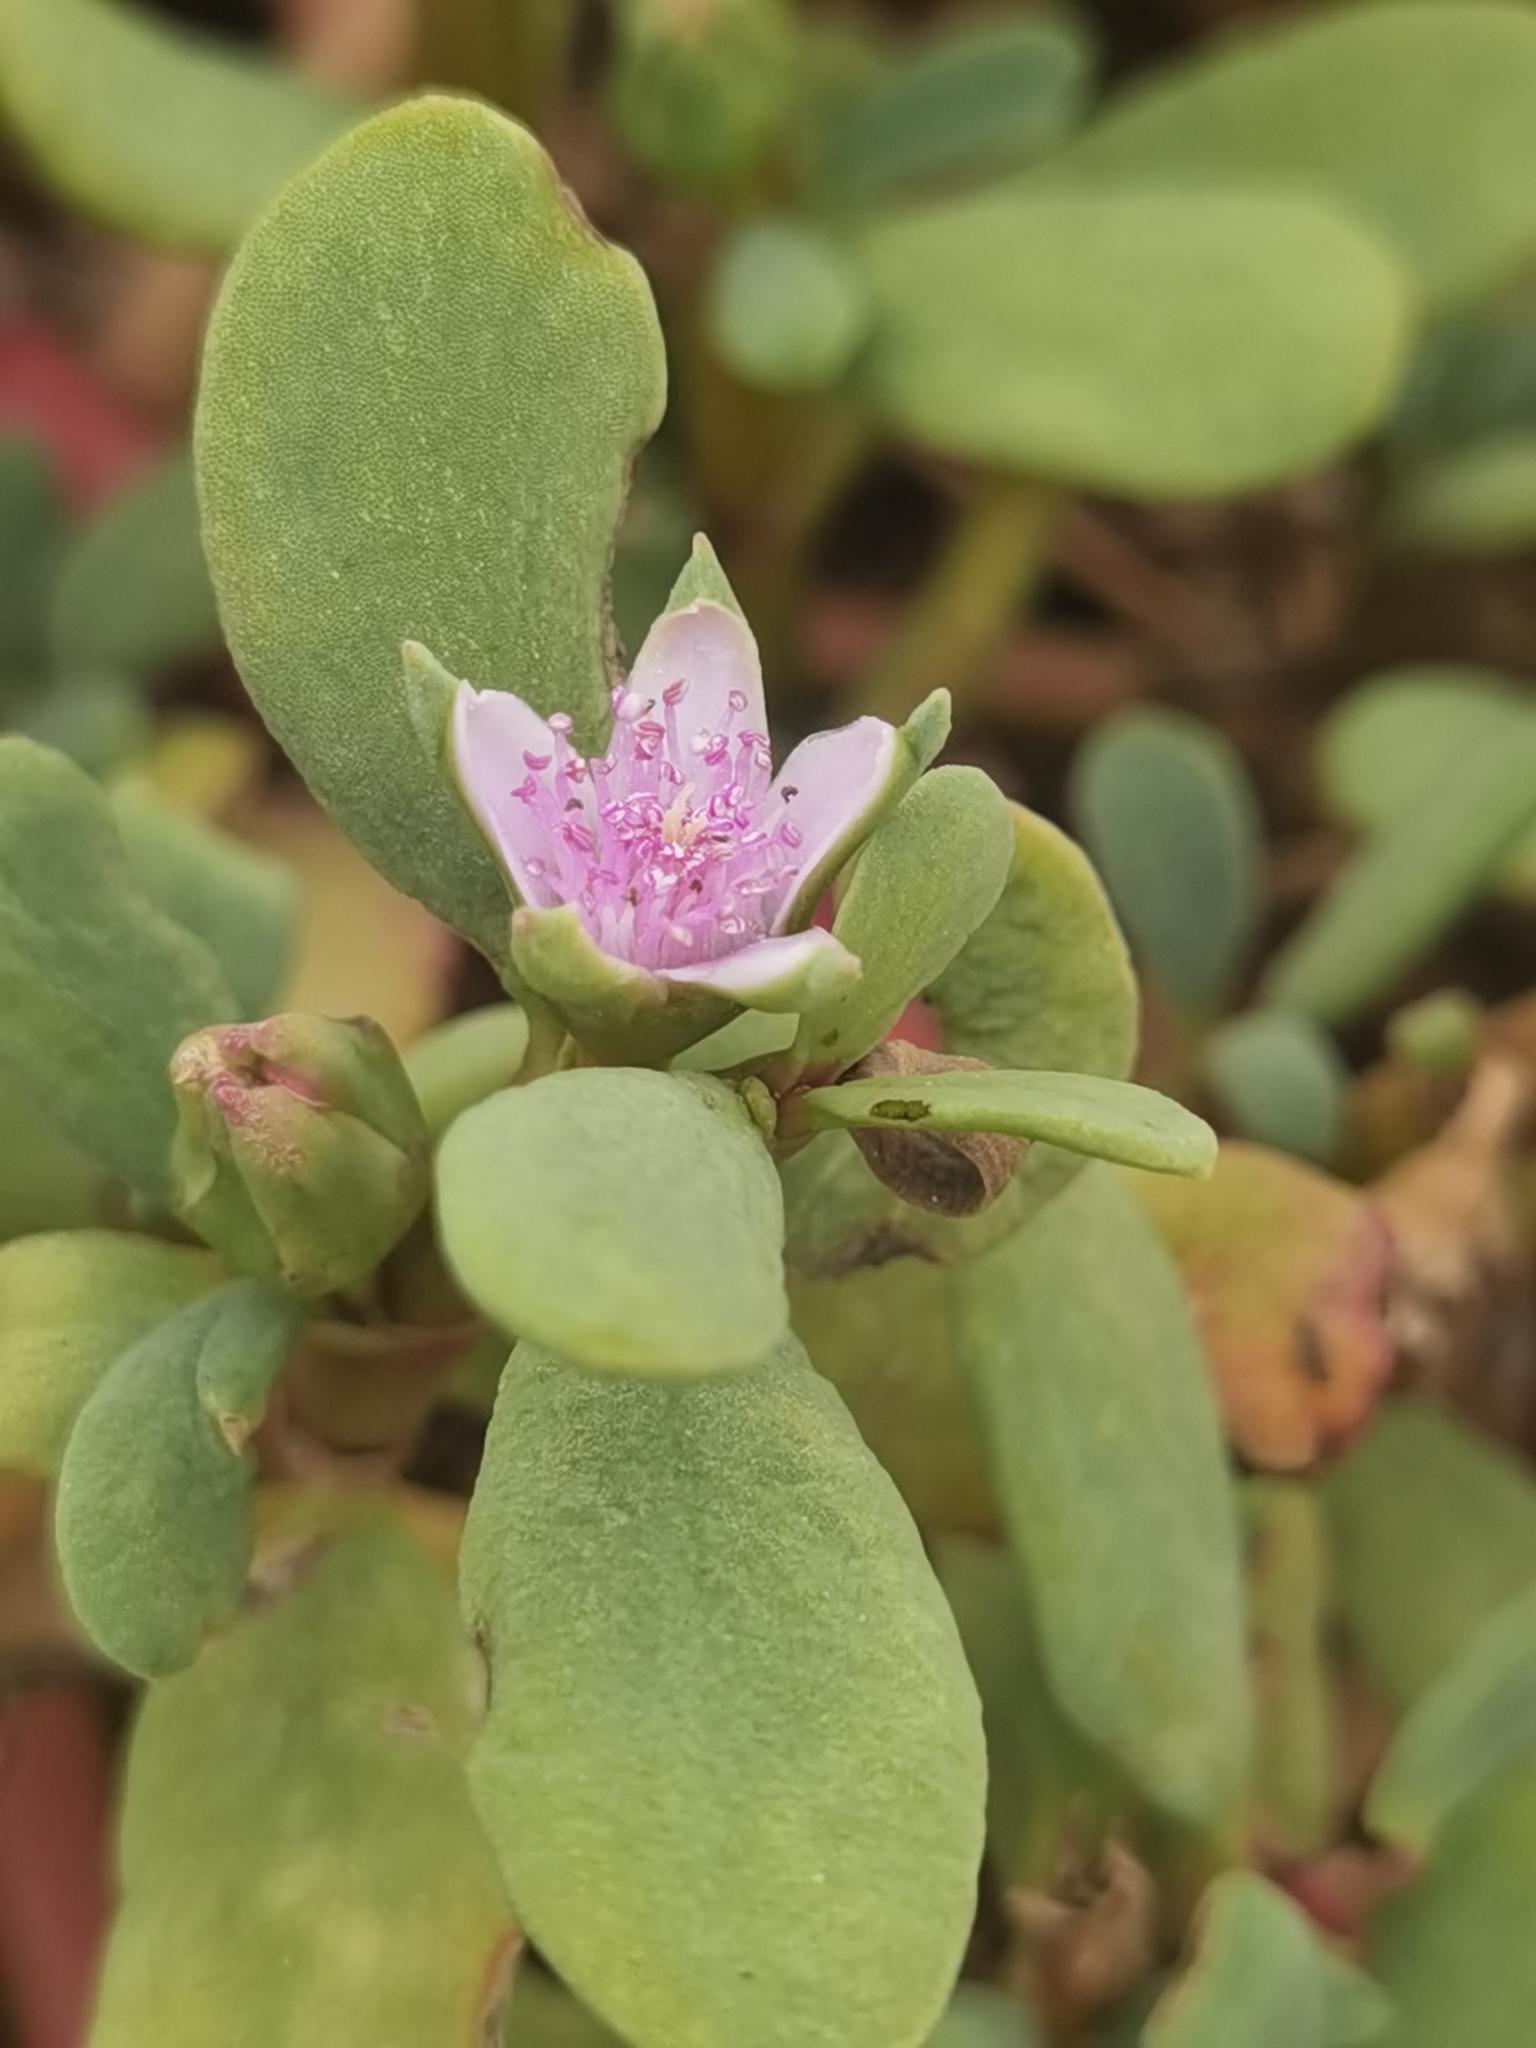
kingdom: Plantae
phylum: Tracheophyta
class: Magnoliopsida
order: Caryophyllales
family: Aizoaceae
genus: Sesuvium
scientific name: Sesuvium portulacastrum
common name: Sea-purslane
